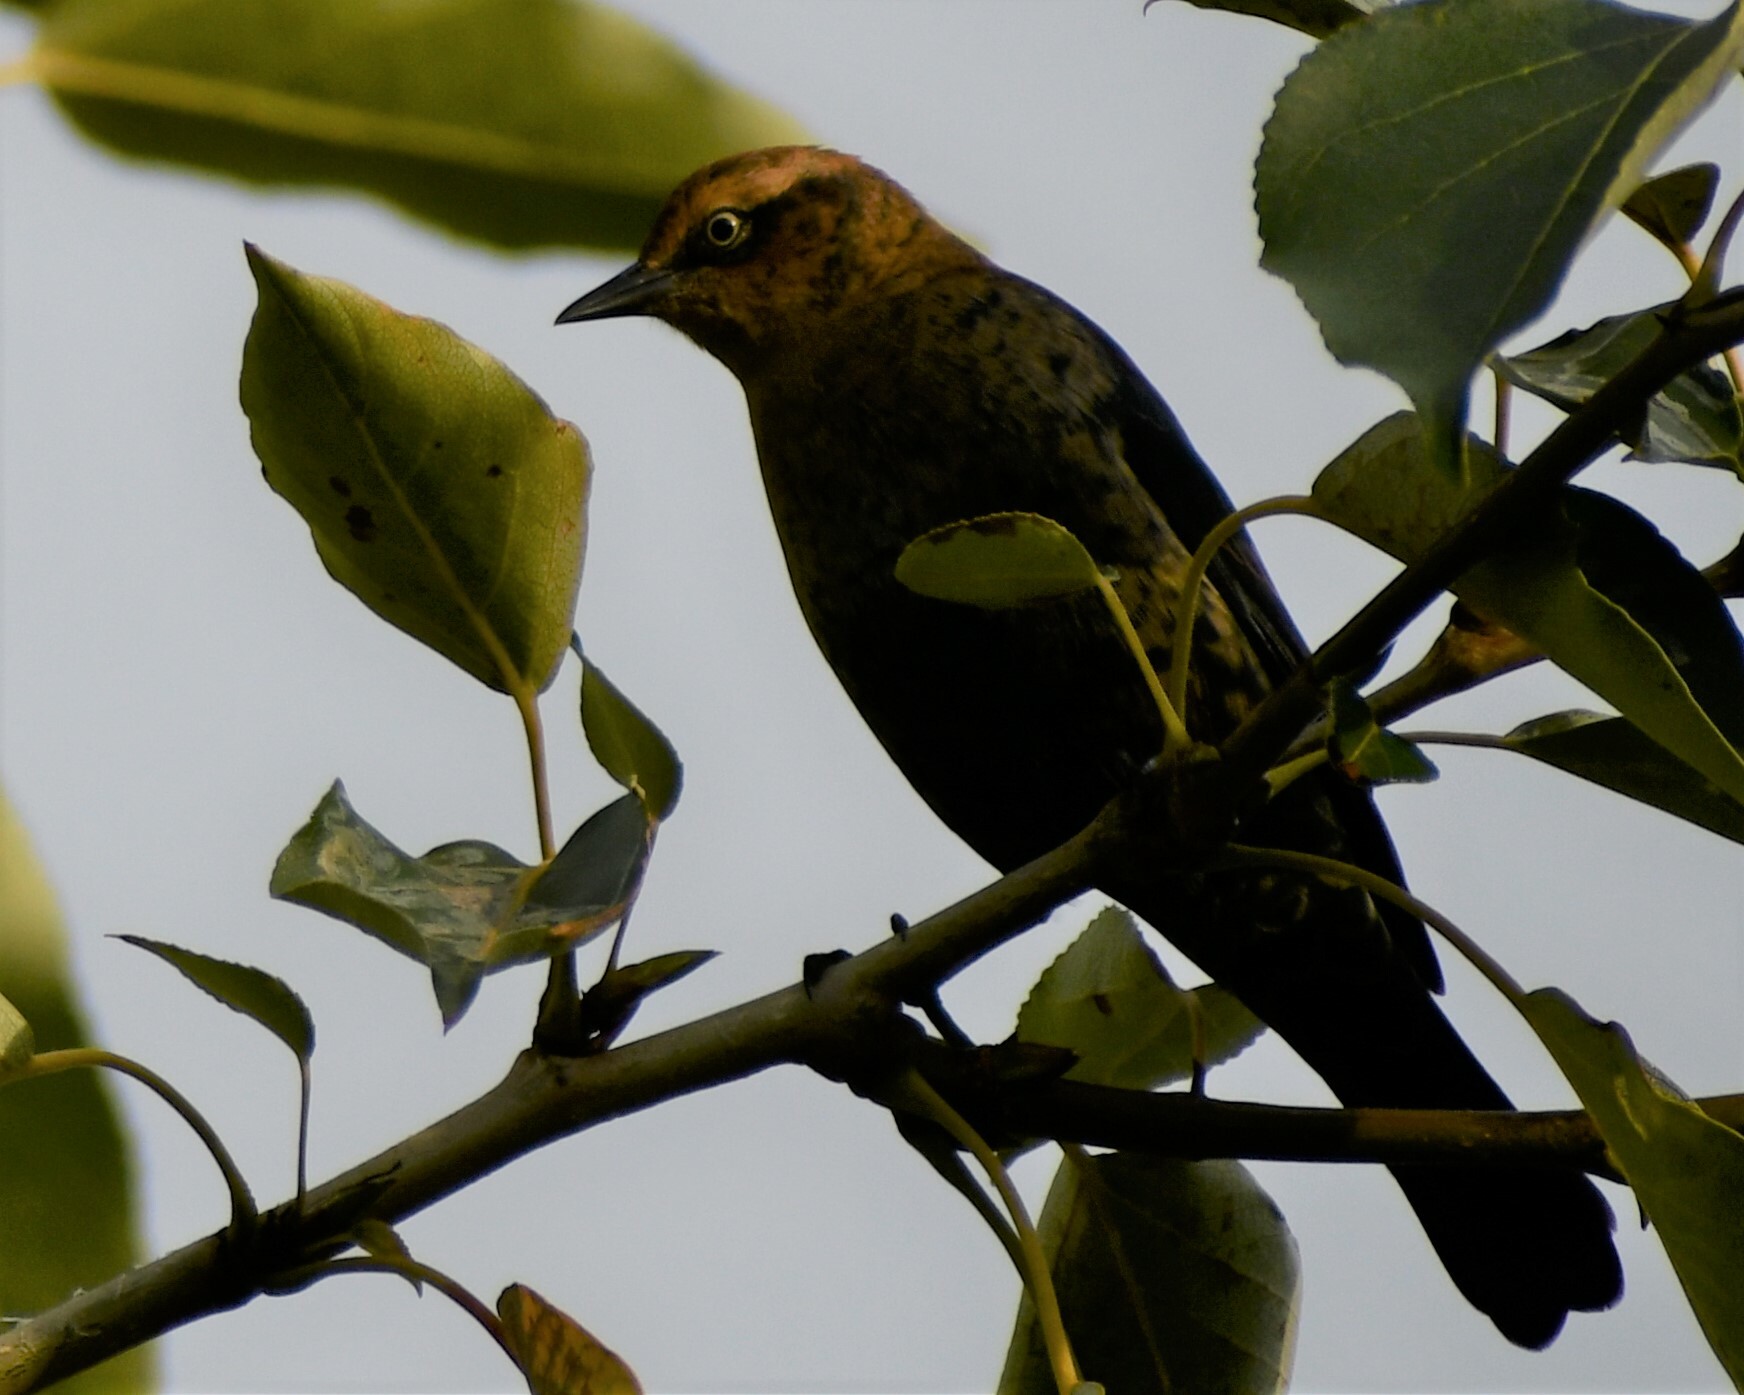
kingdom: Animalia
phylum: Chordata
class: Aves
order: Passeriformes
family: Icteridae
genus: Euphagus
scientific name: Euphagus carolinus
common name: Rusty blackbird
